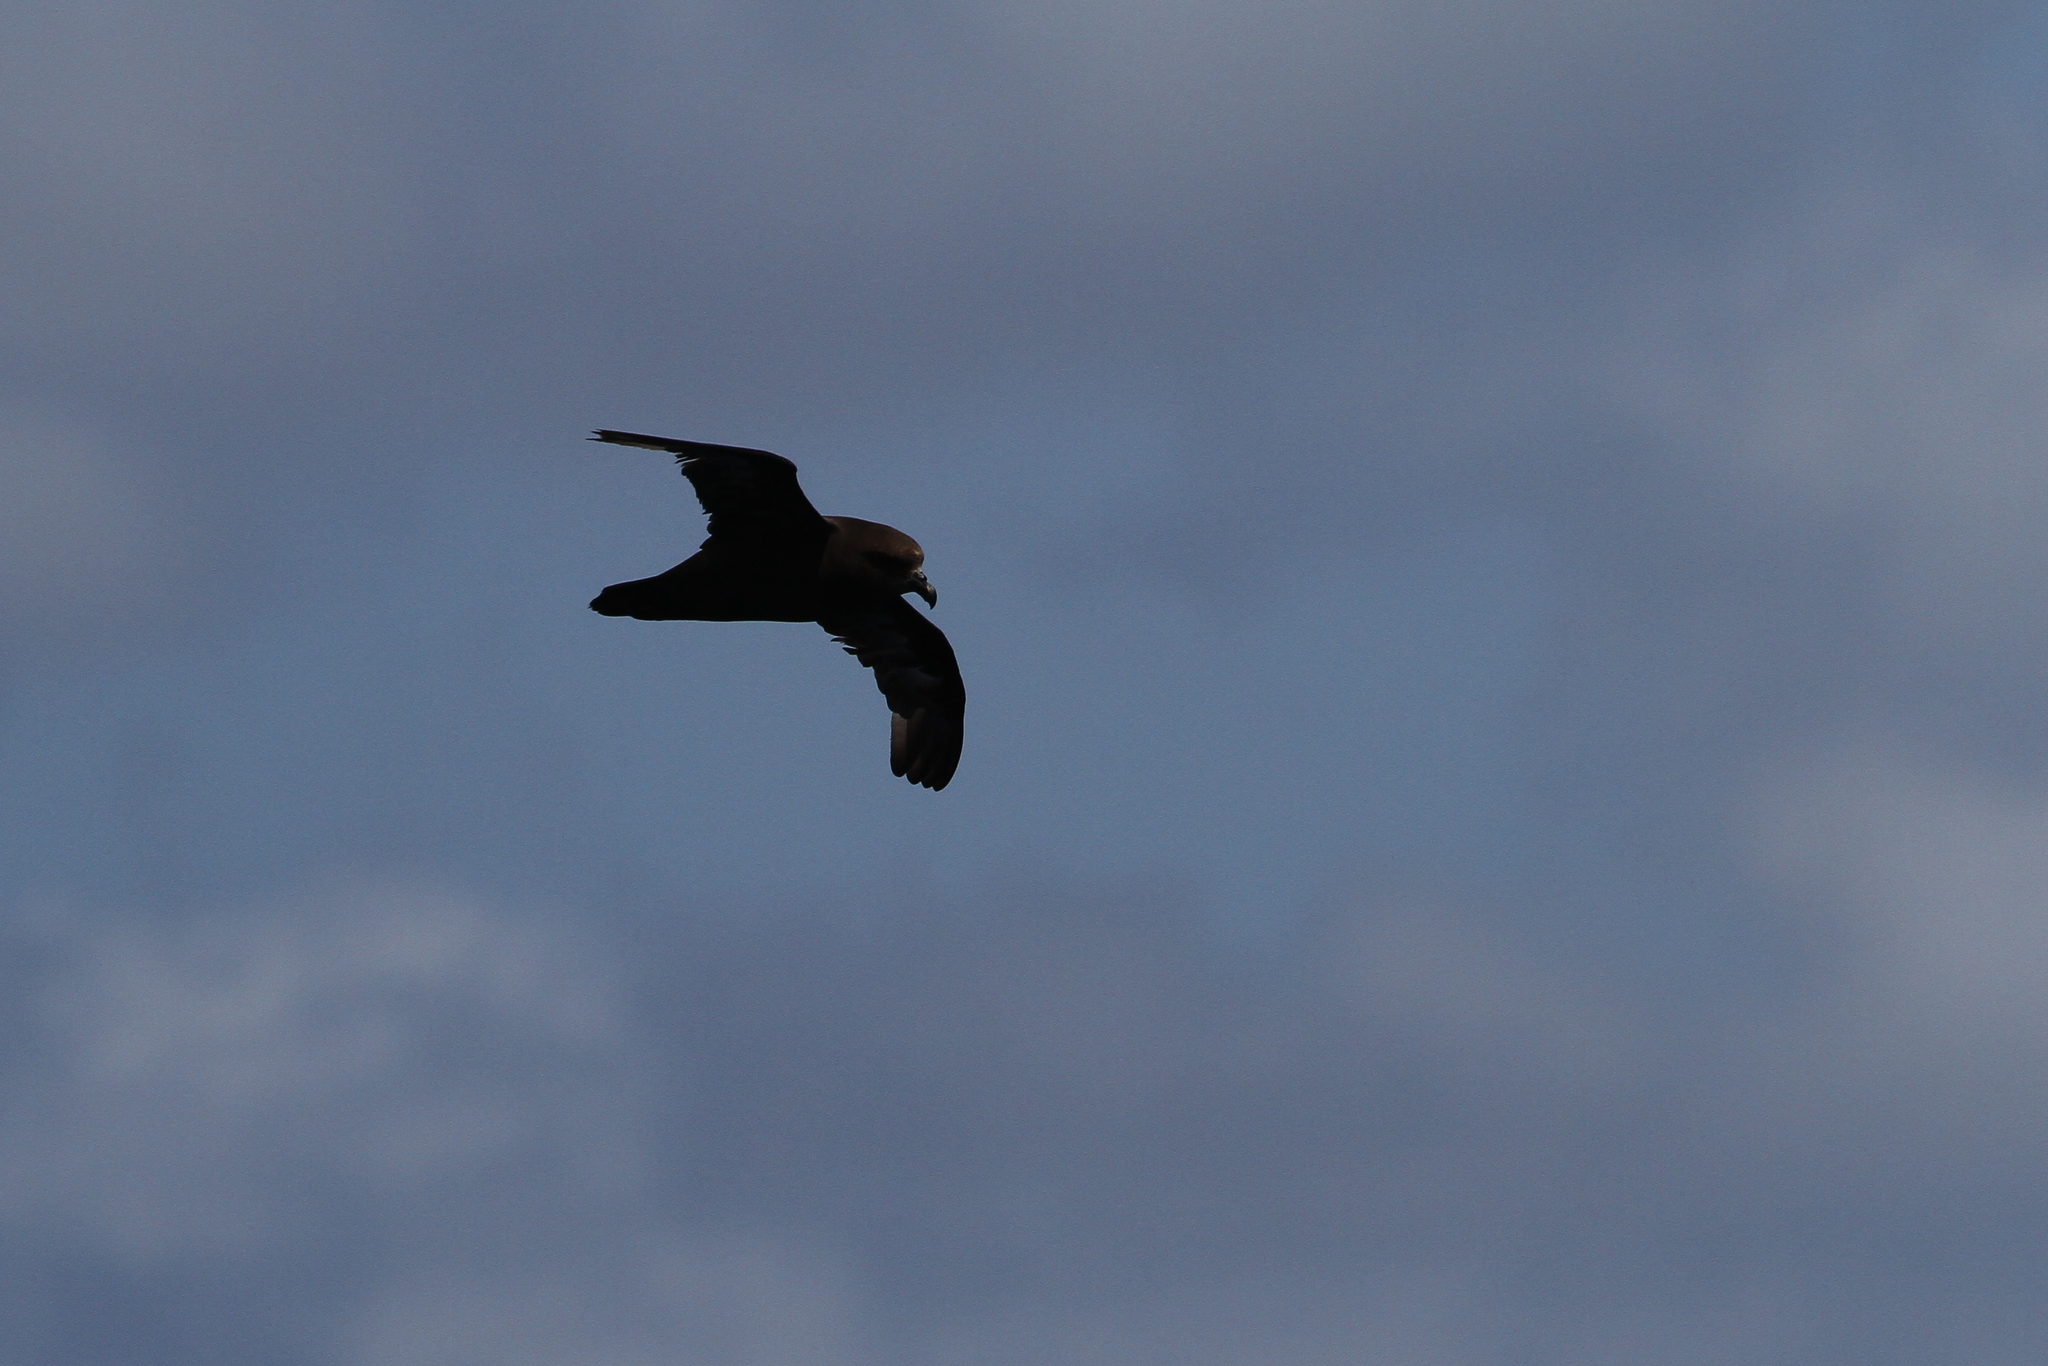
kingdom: Animalia
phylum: Chordata
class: Aves
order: Procellariiformes
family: Procellariidae
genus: Pterodroma
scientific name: Pterodroma macroptera
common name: Great-winged petrel
